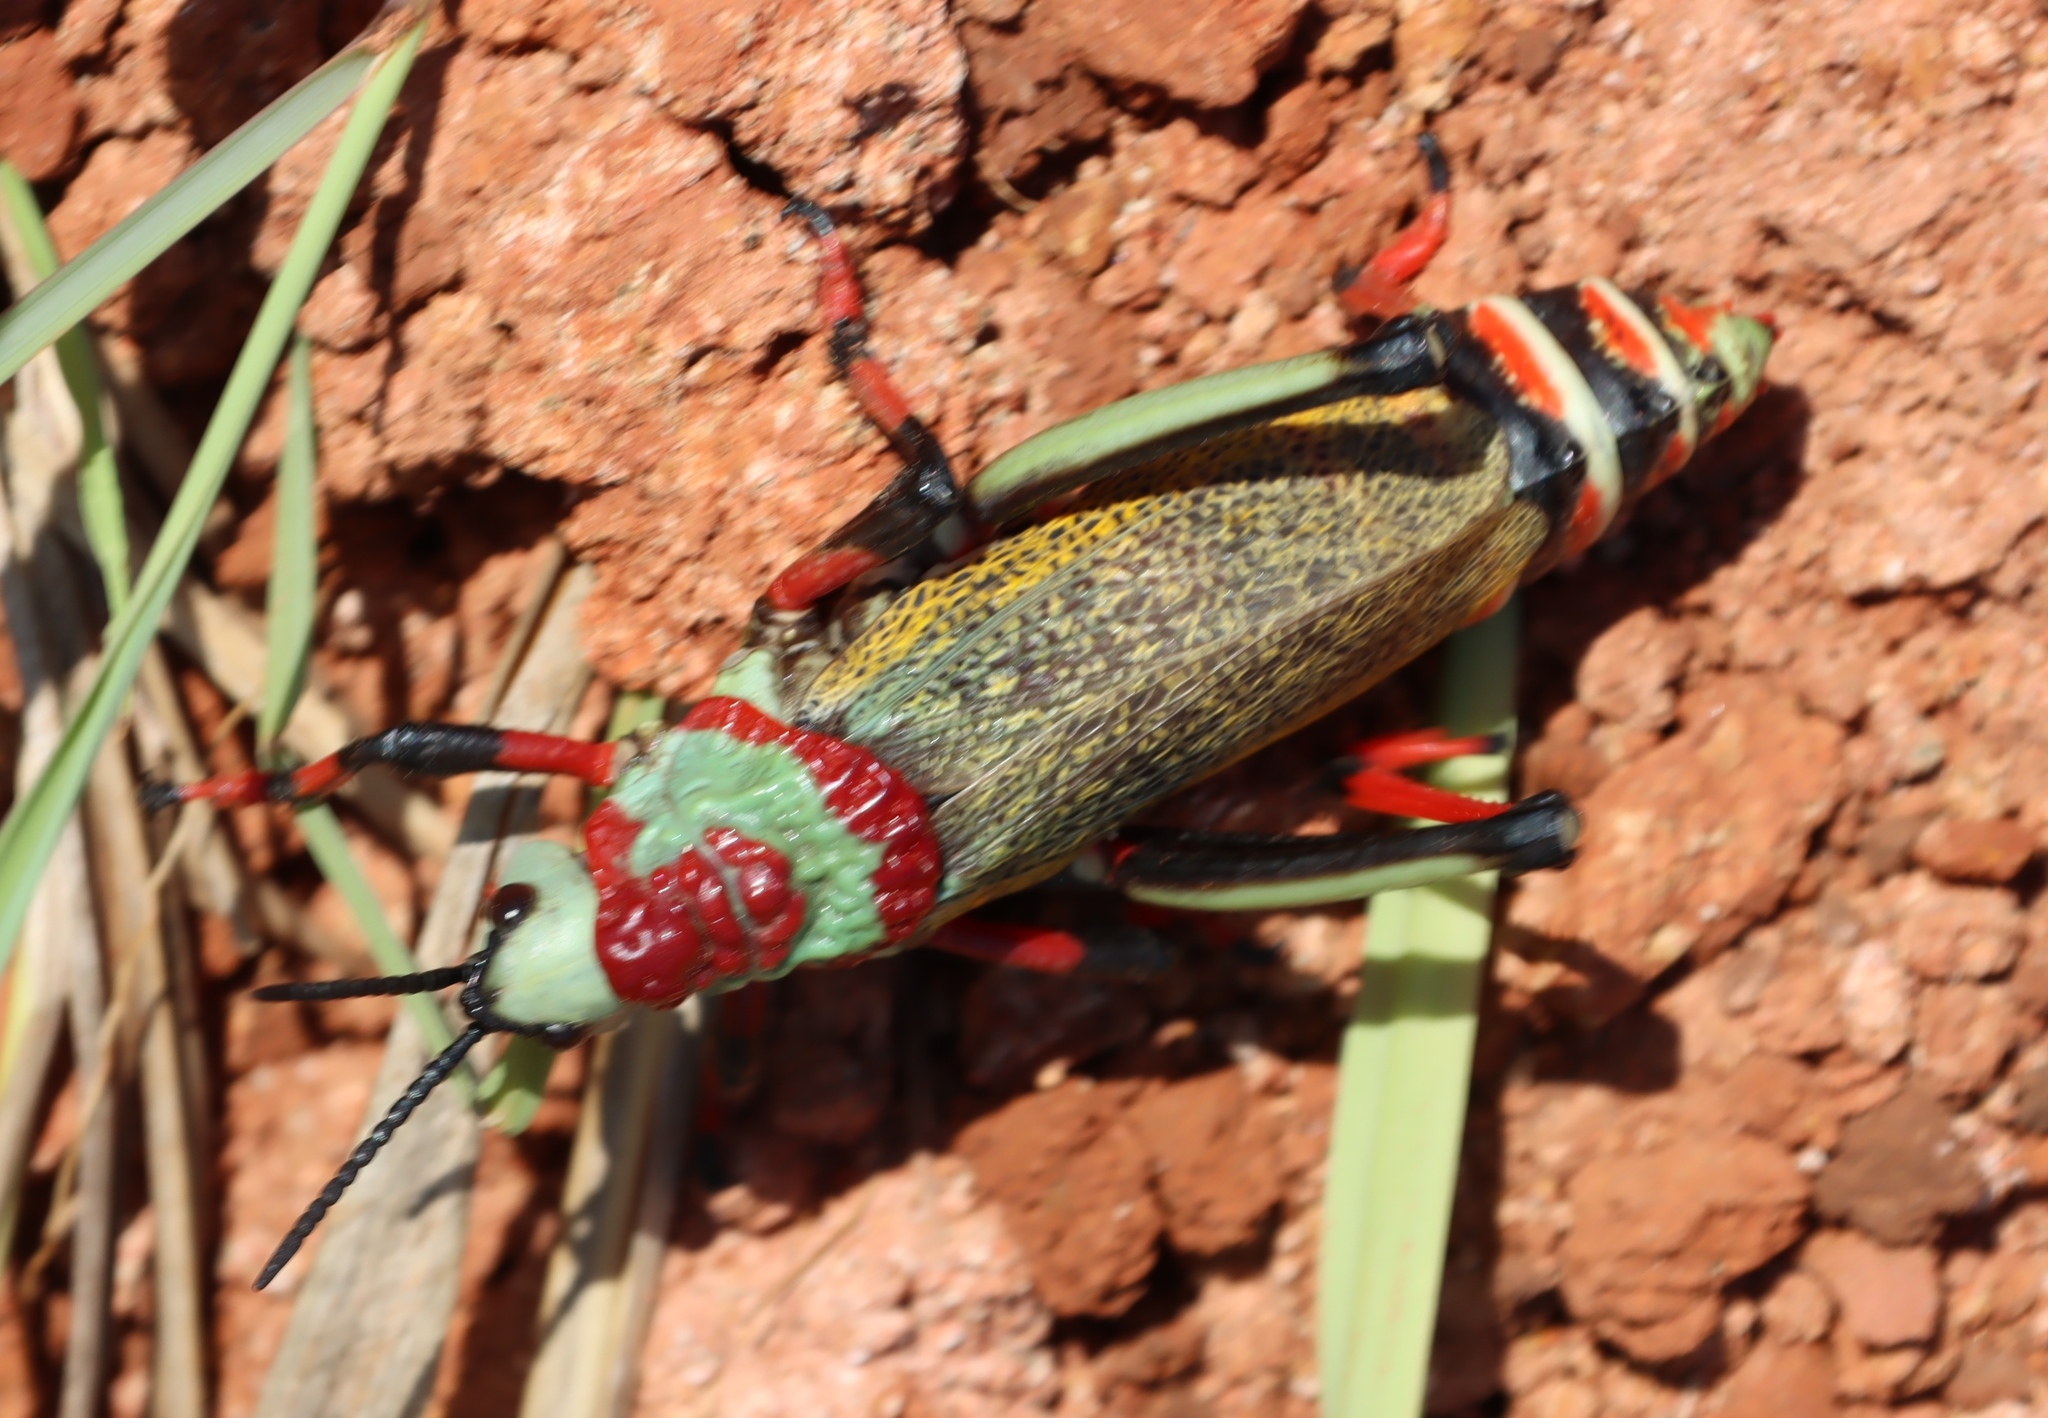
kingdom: Animalia
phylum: Arthropoda
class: Insecta
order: Orthoptera
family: Pyrgomorphidae
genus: Dictyophorus
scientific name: Dictyophorus spumans
